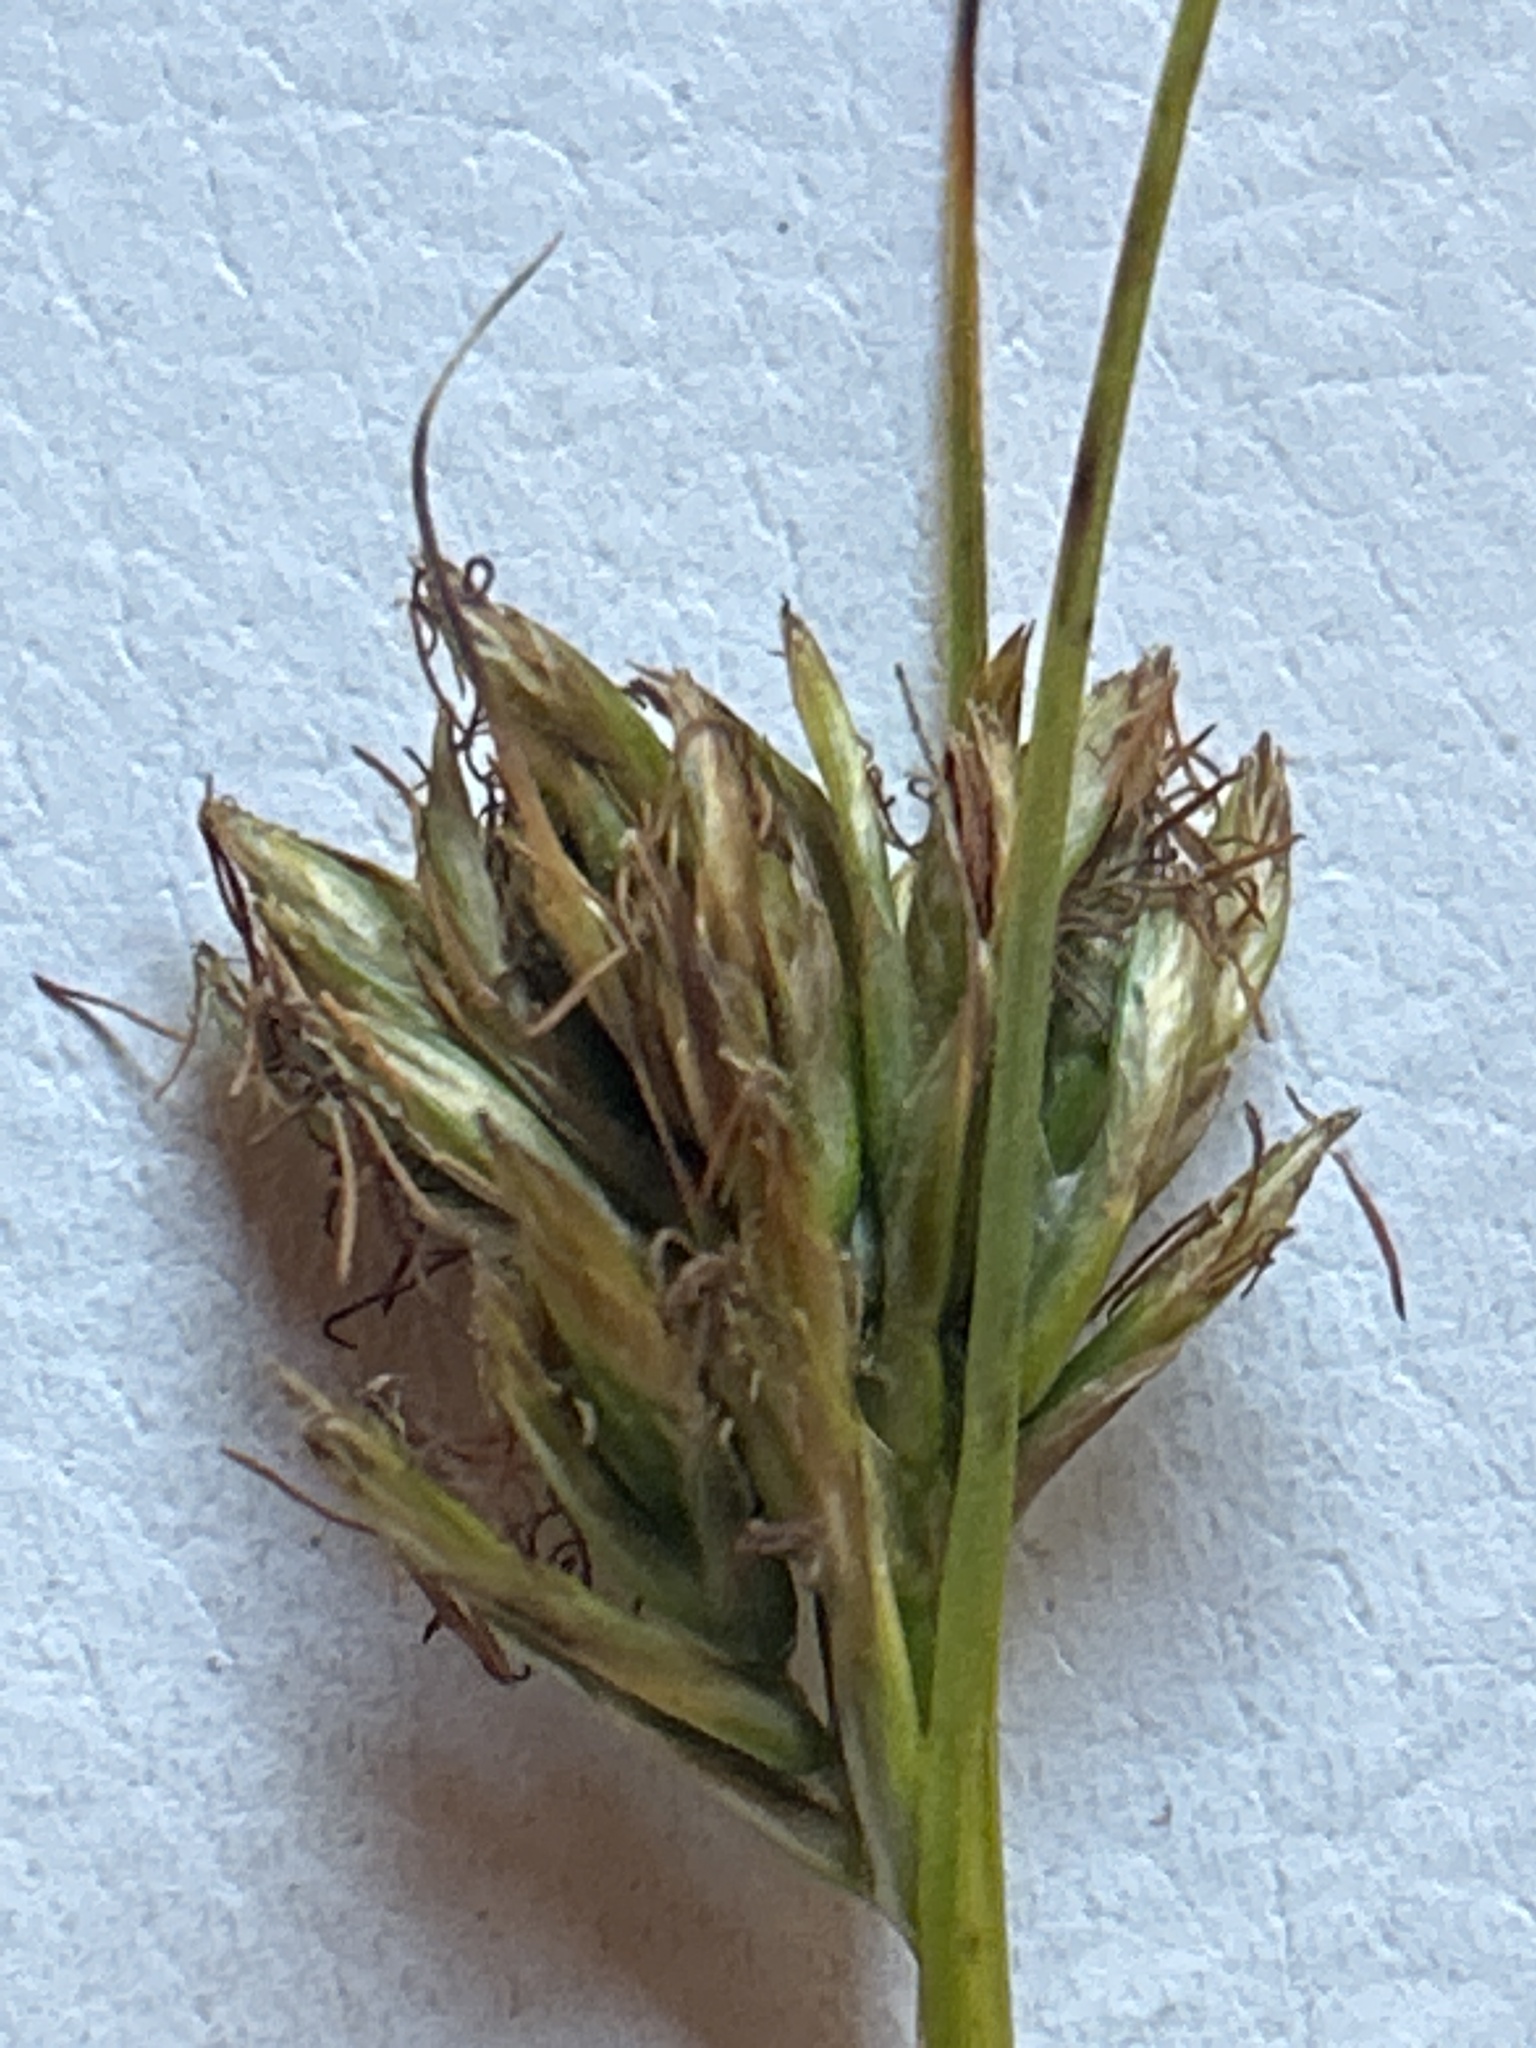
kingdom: Plantae
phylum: Tracheophyta
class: Liliopsida
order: Poales
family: Cyperaceae
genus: Carex
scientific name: Carex capensis
